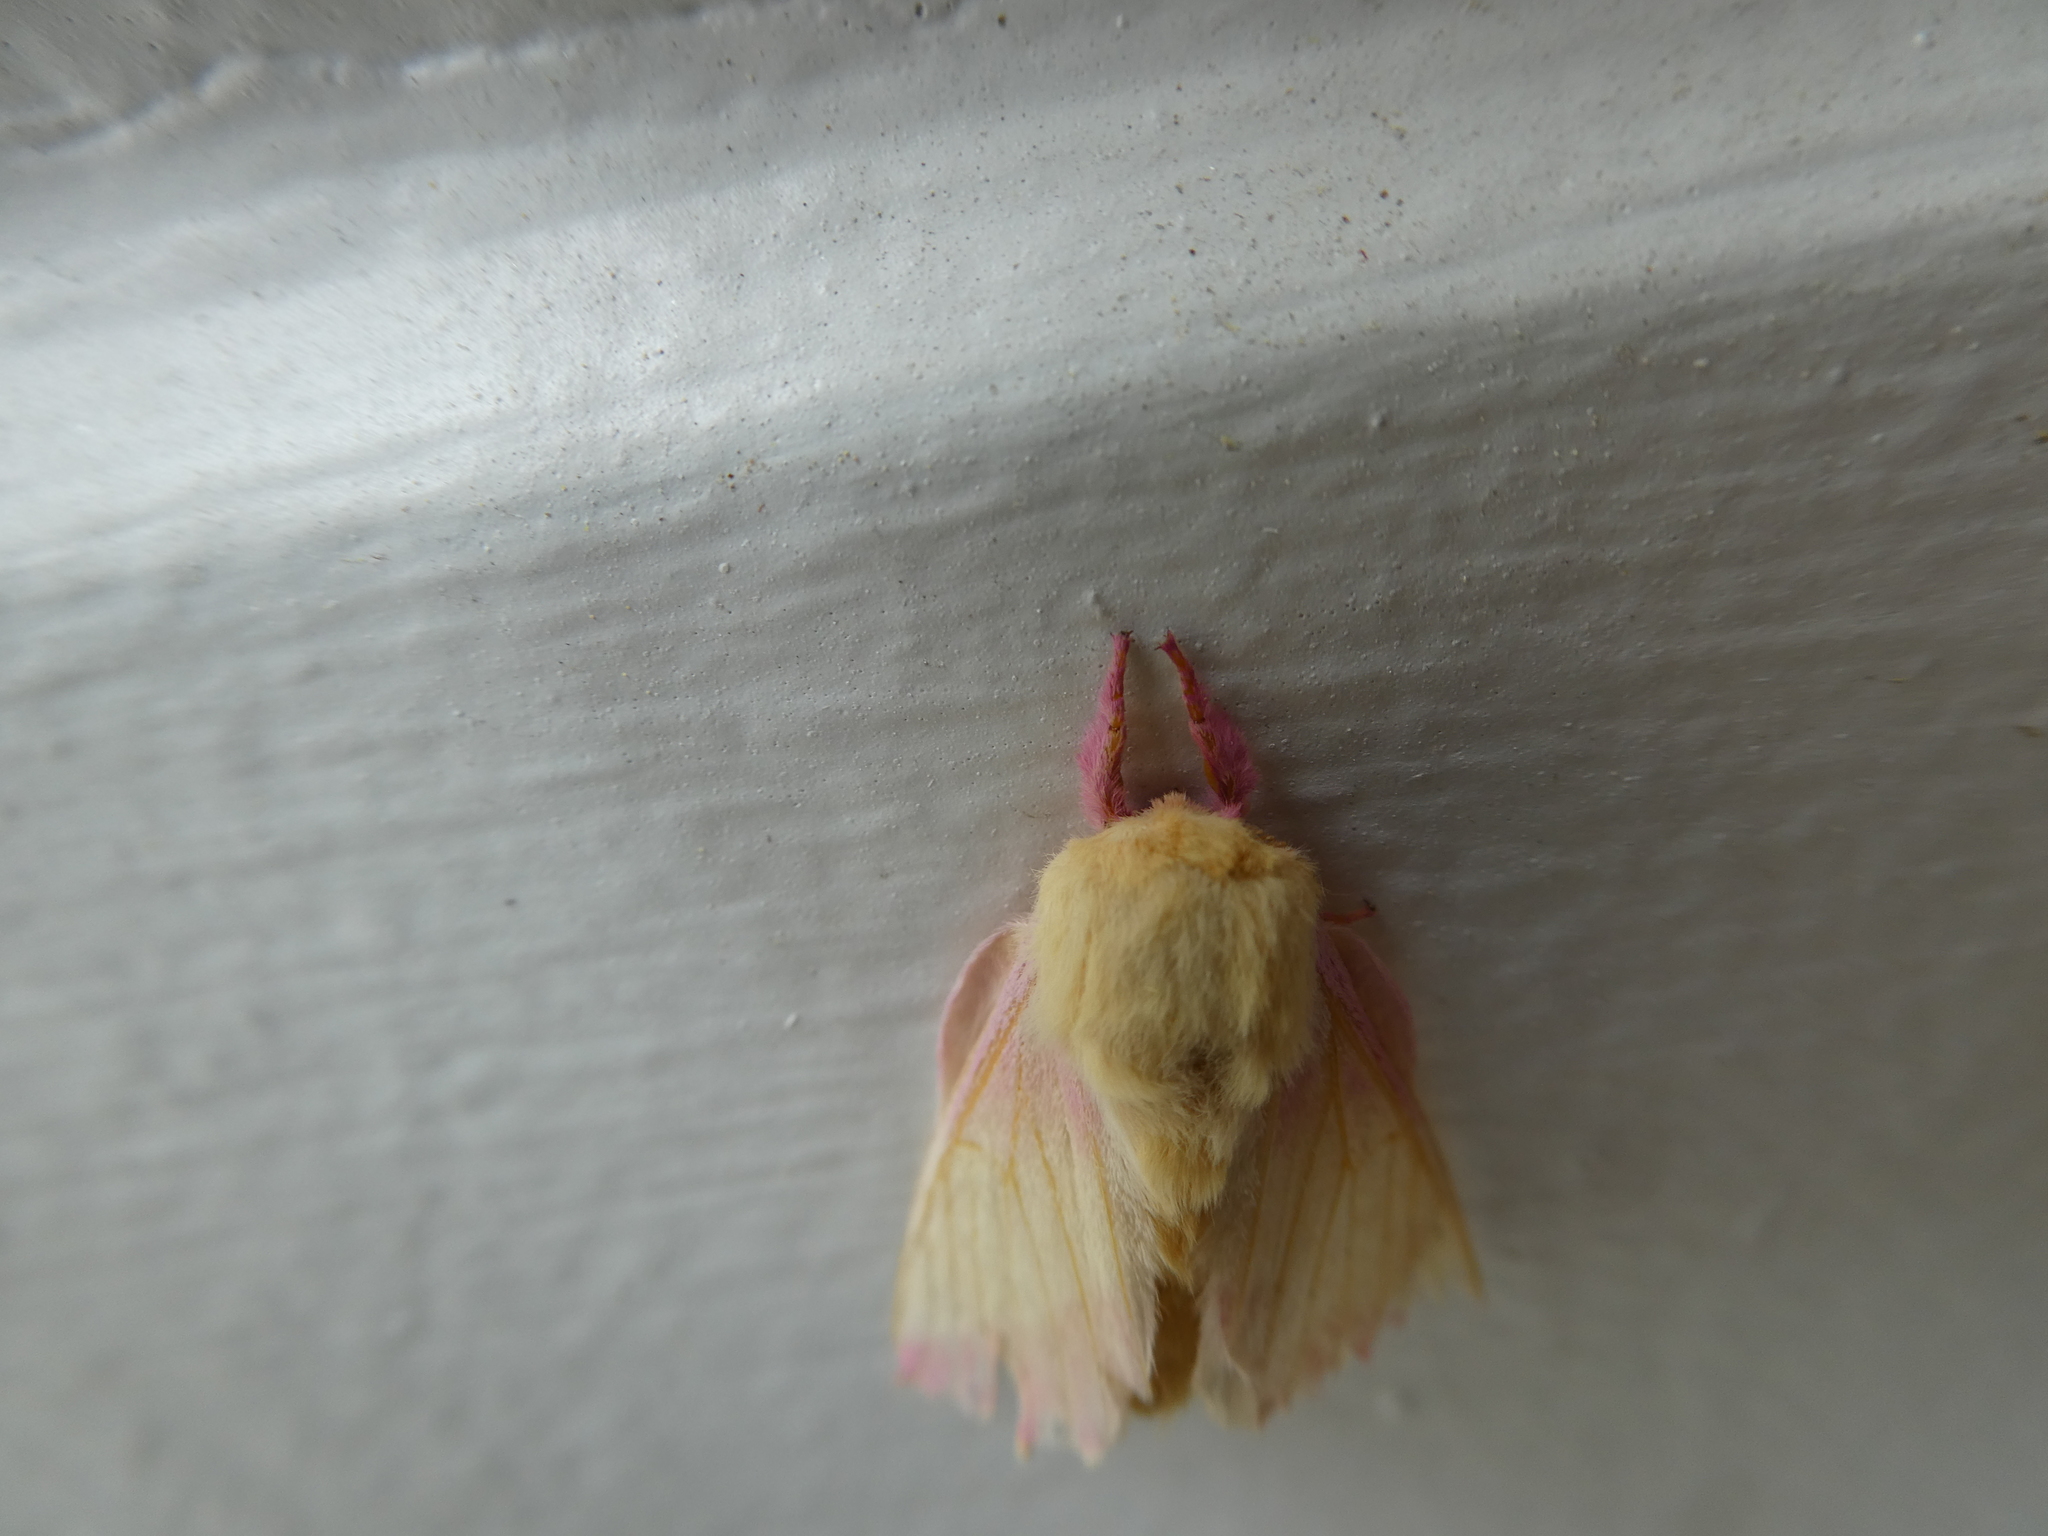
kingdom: Animalia
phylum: Arthropoda
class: Insecta
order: Lepidoptera
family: Saturniidae
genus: Dryocampa
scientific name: Dryocampa rubicunda
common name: Rosy maple moth
